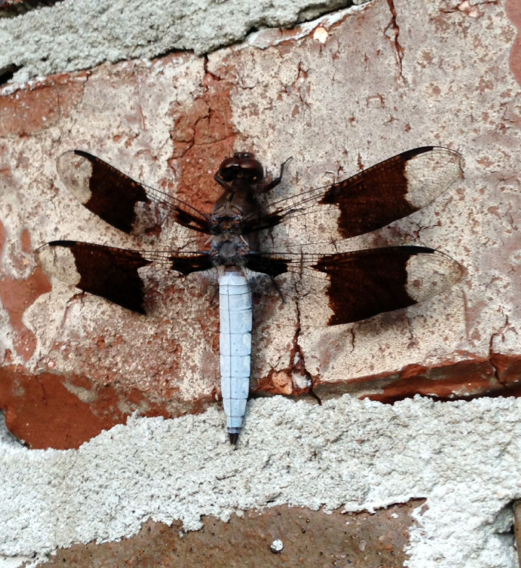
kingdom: Animalia
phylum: Arthropoda
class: Insecta
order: Odonata
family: Libellulidae
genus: Plathemis
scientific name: Plathemis lydia
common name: Common whitetail
